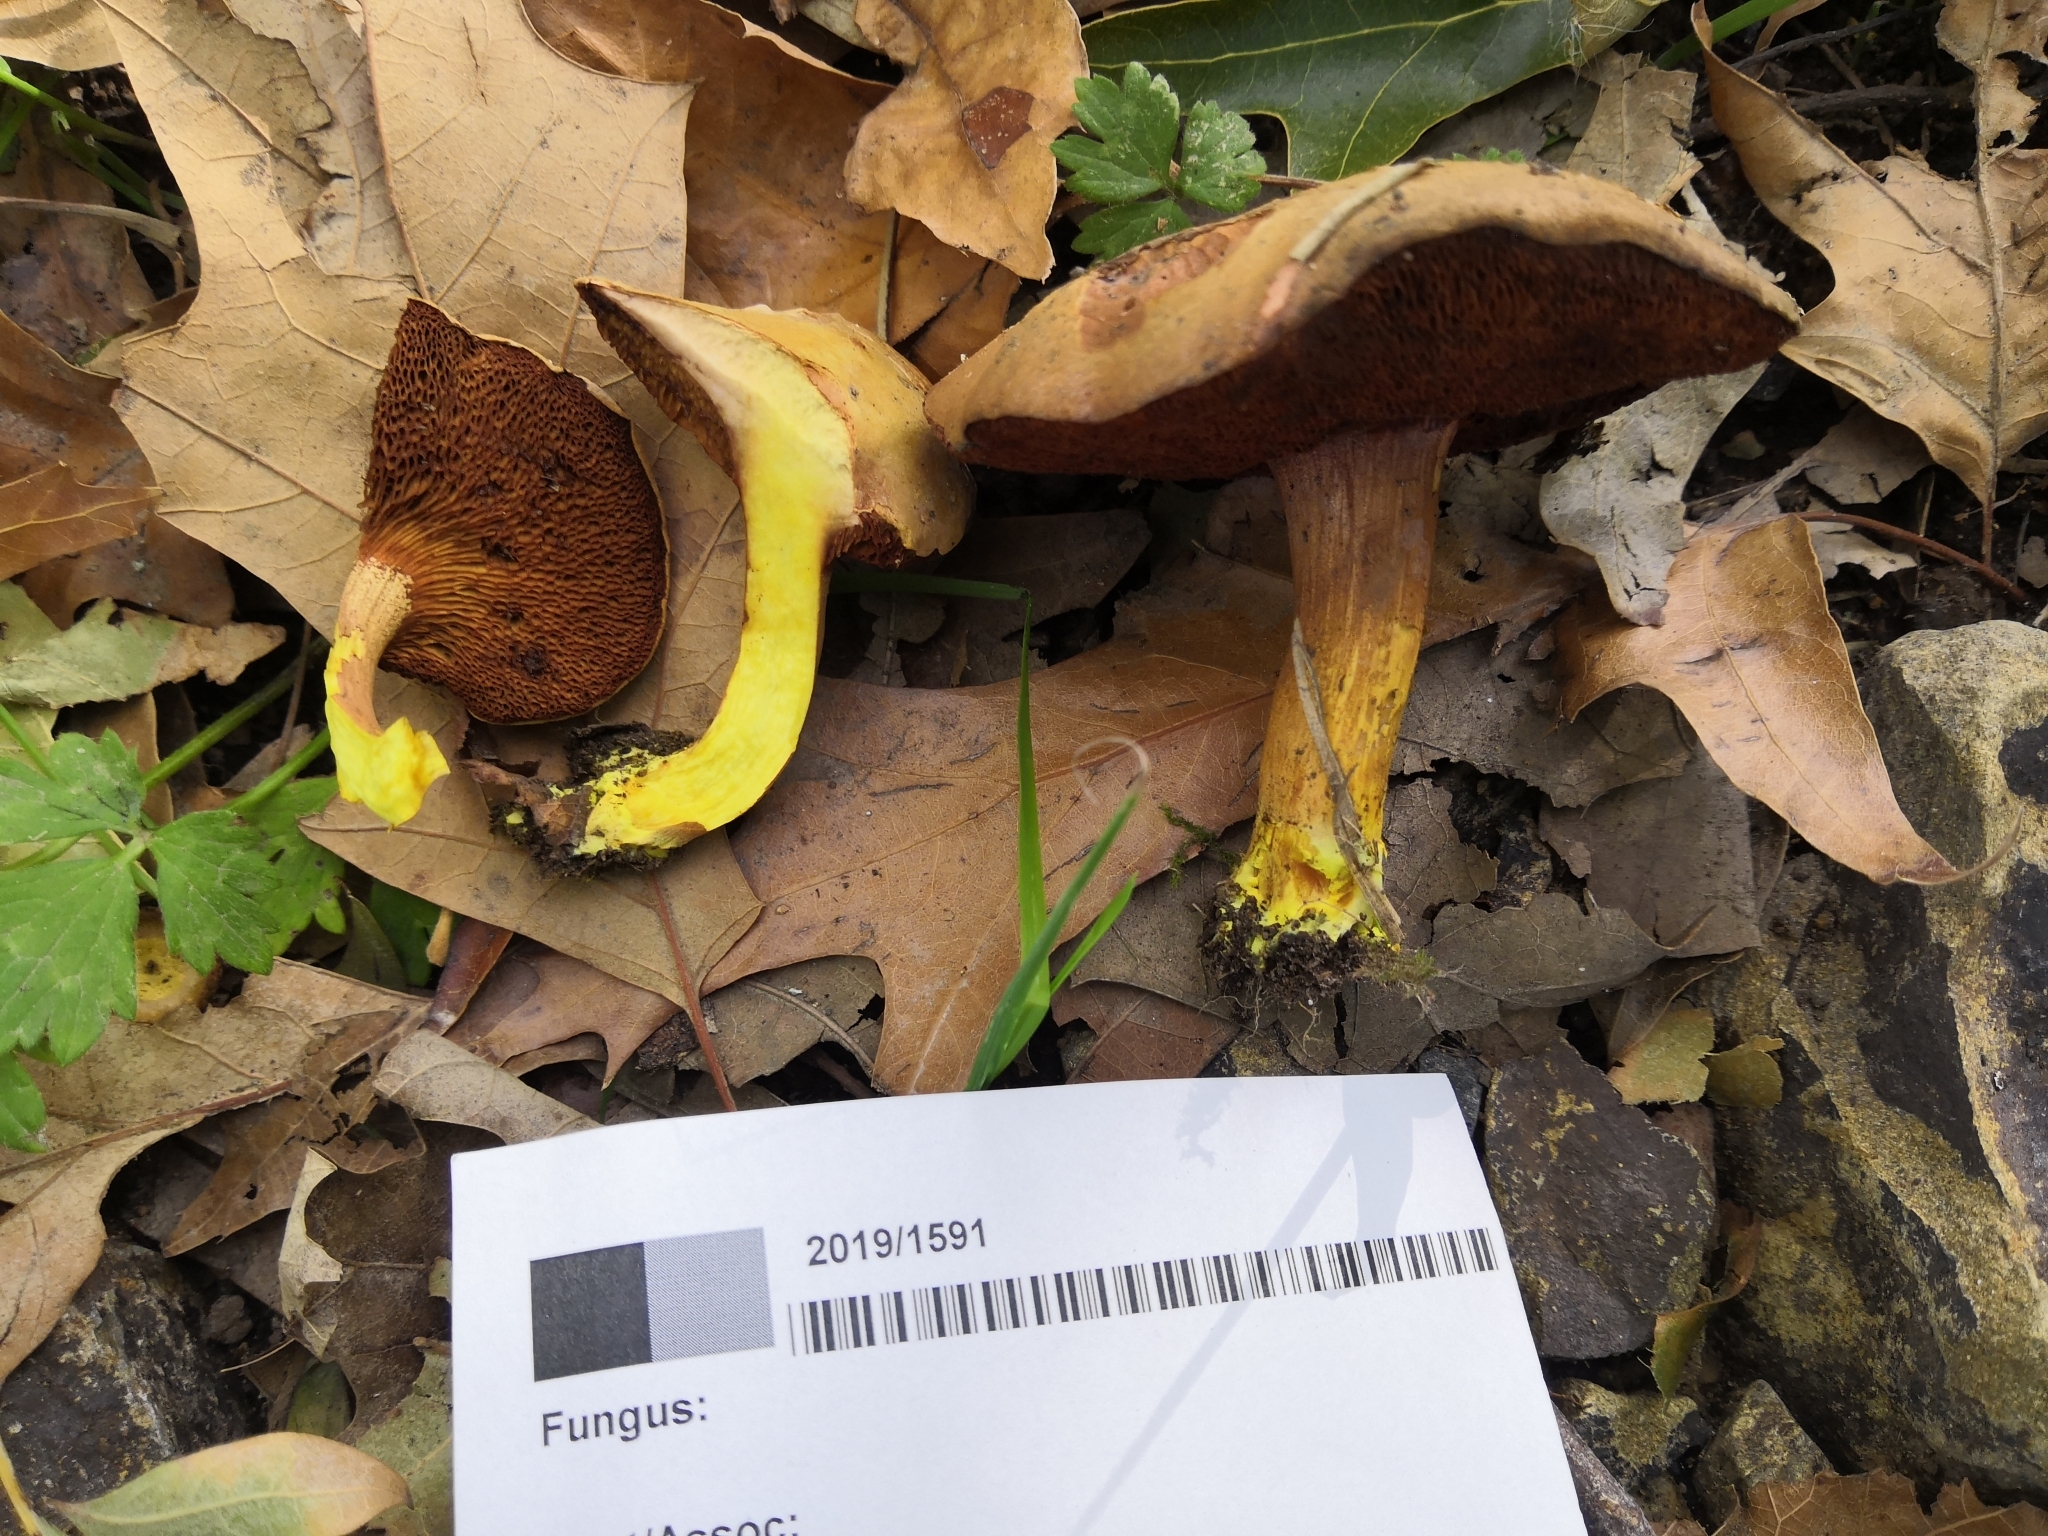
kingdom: Fungi
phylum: Basidiomycota
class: Agaricomycetes
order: Boletales
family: Boletaceae
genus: Chalciporus
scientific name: Chalciporus piperatoides
